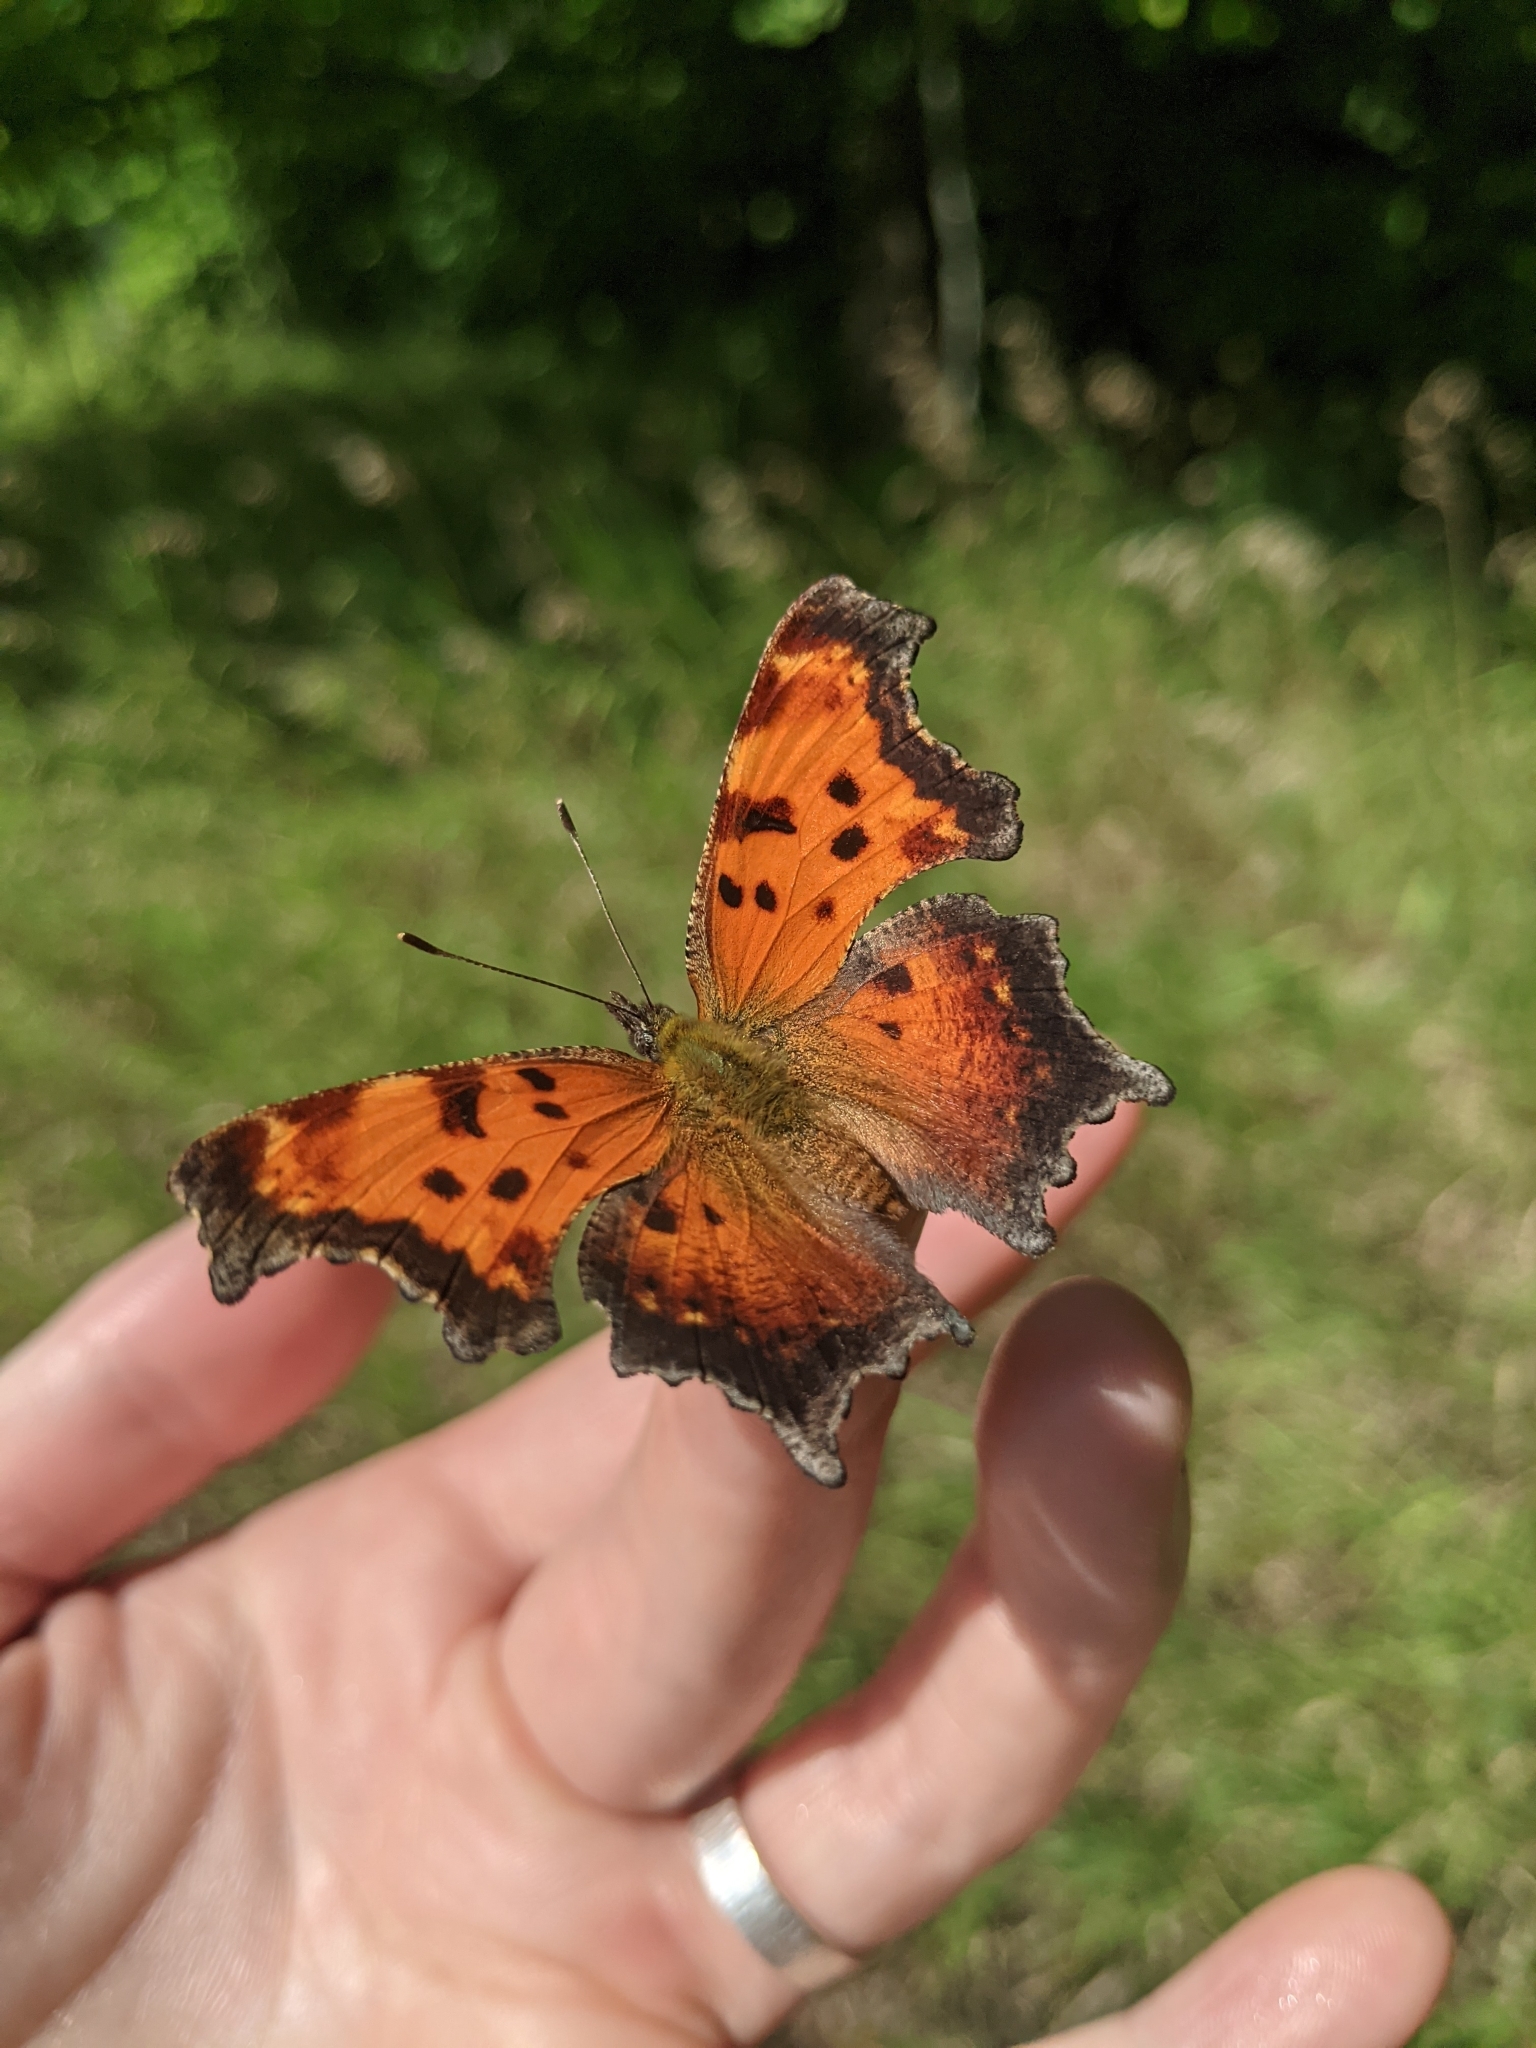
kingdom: Animalia
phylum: Arthropoda
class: Insecta
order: Lepidoptera
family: Nymphalidae
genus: Polygonia
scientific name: Polygonia progne
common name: Gray comma
